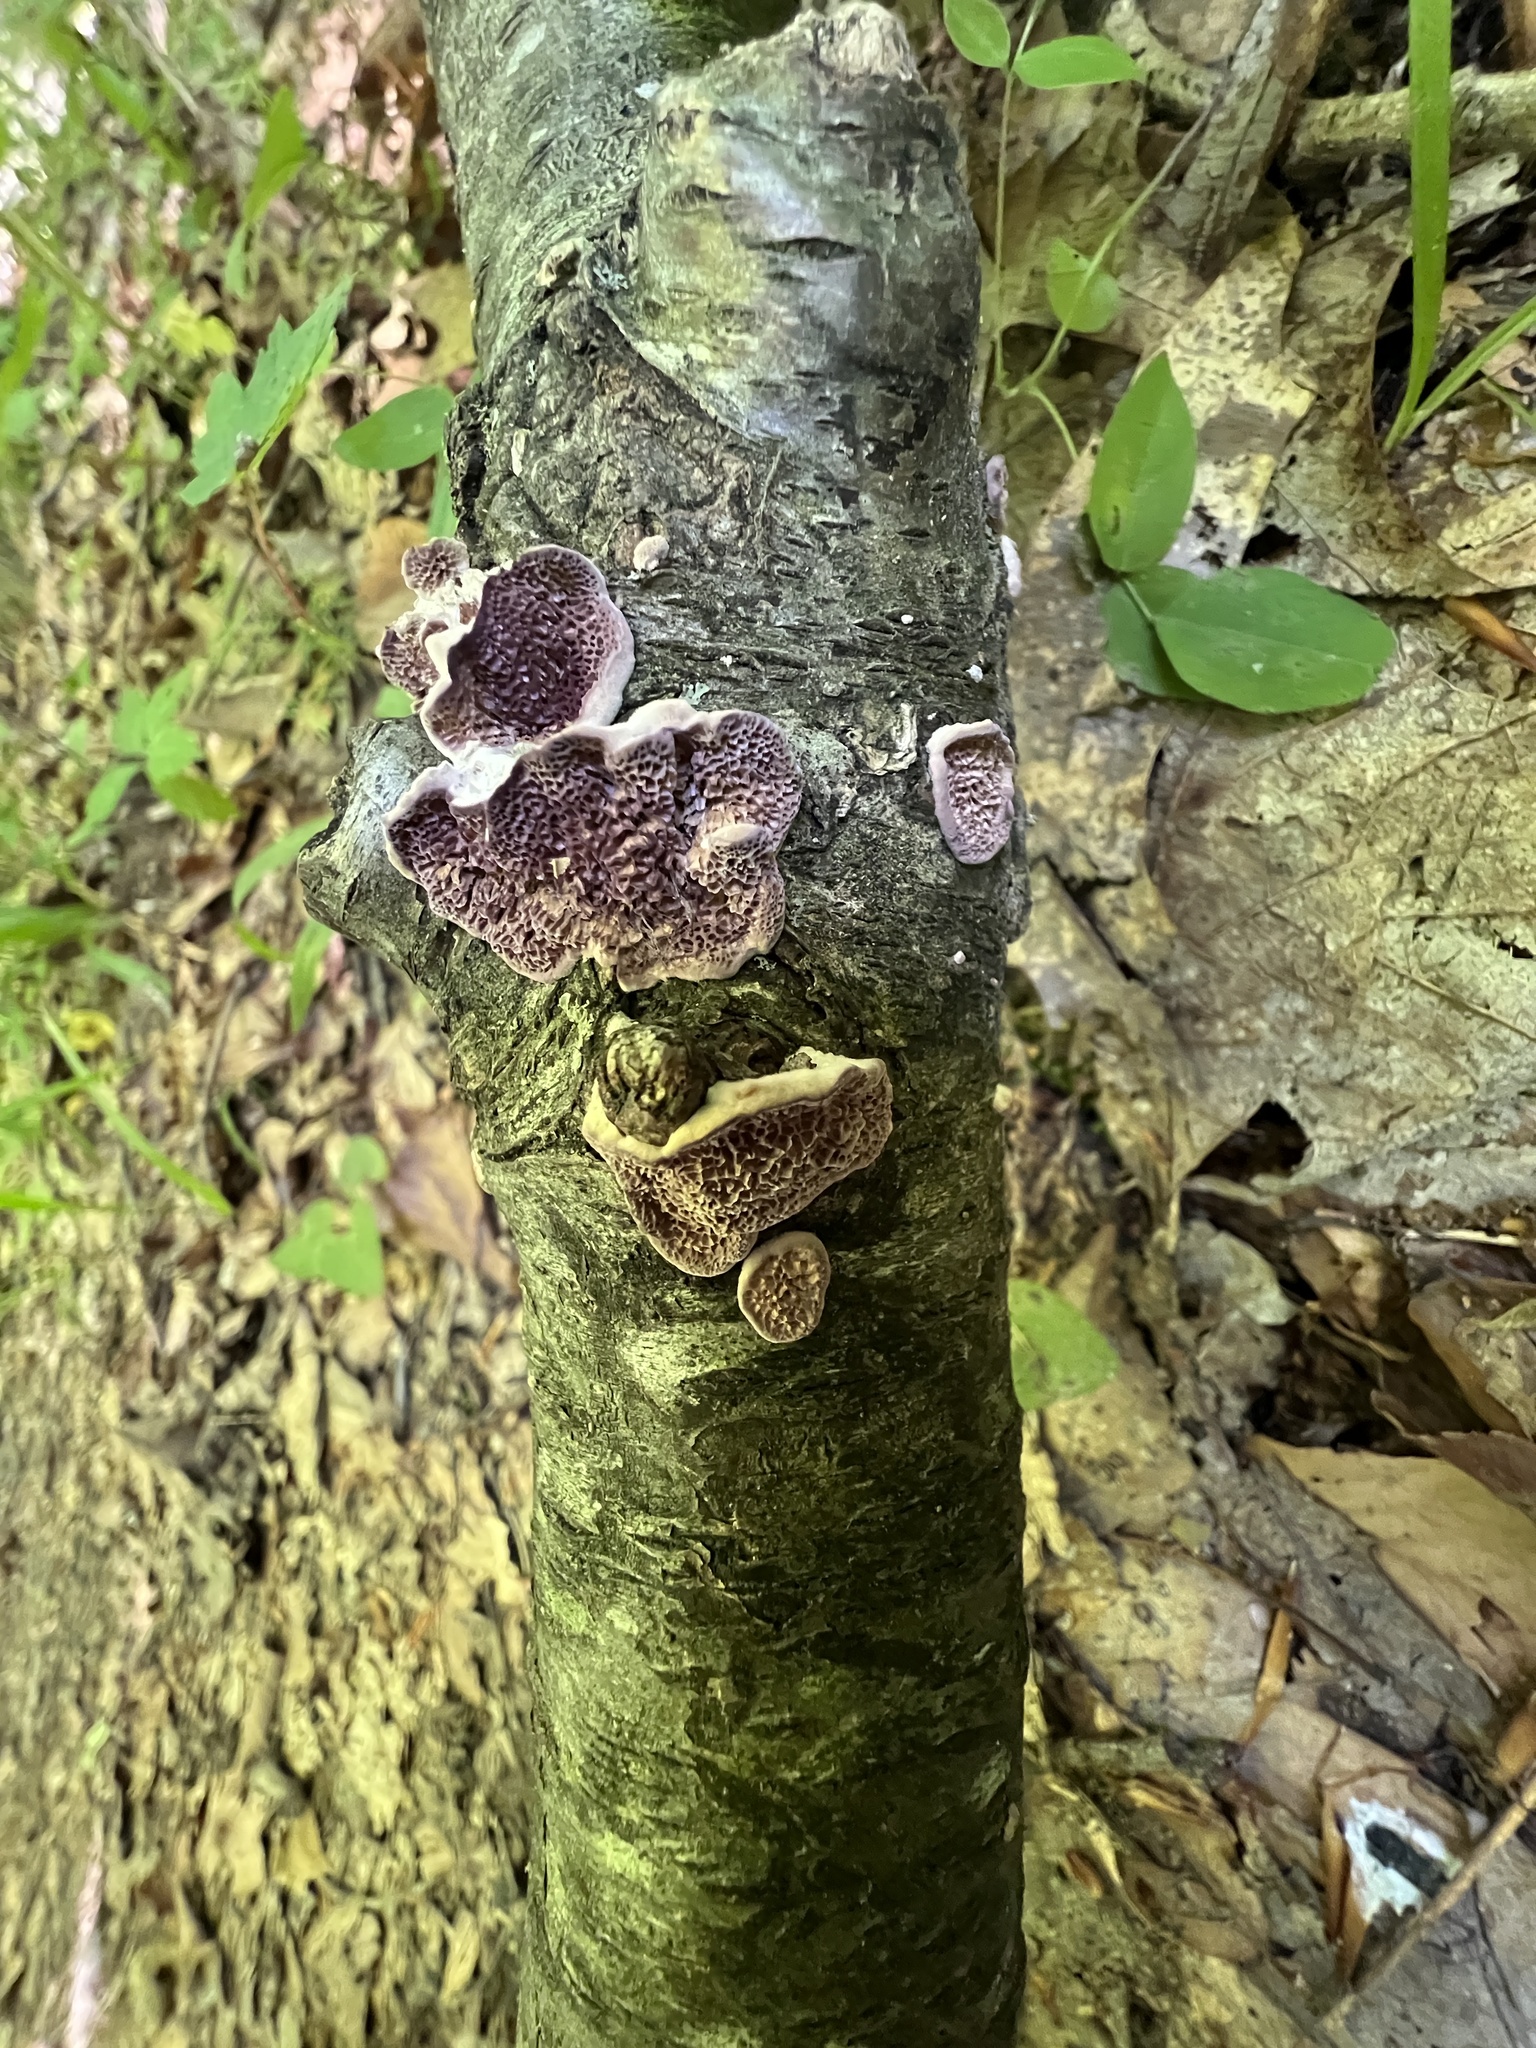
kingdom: Fungi
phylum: Basidiomycota
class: Agaricomycetes
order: Hymenochaetales
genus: Trichaptum
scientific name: Trichaptum subchartaceum
